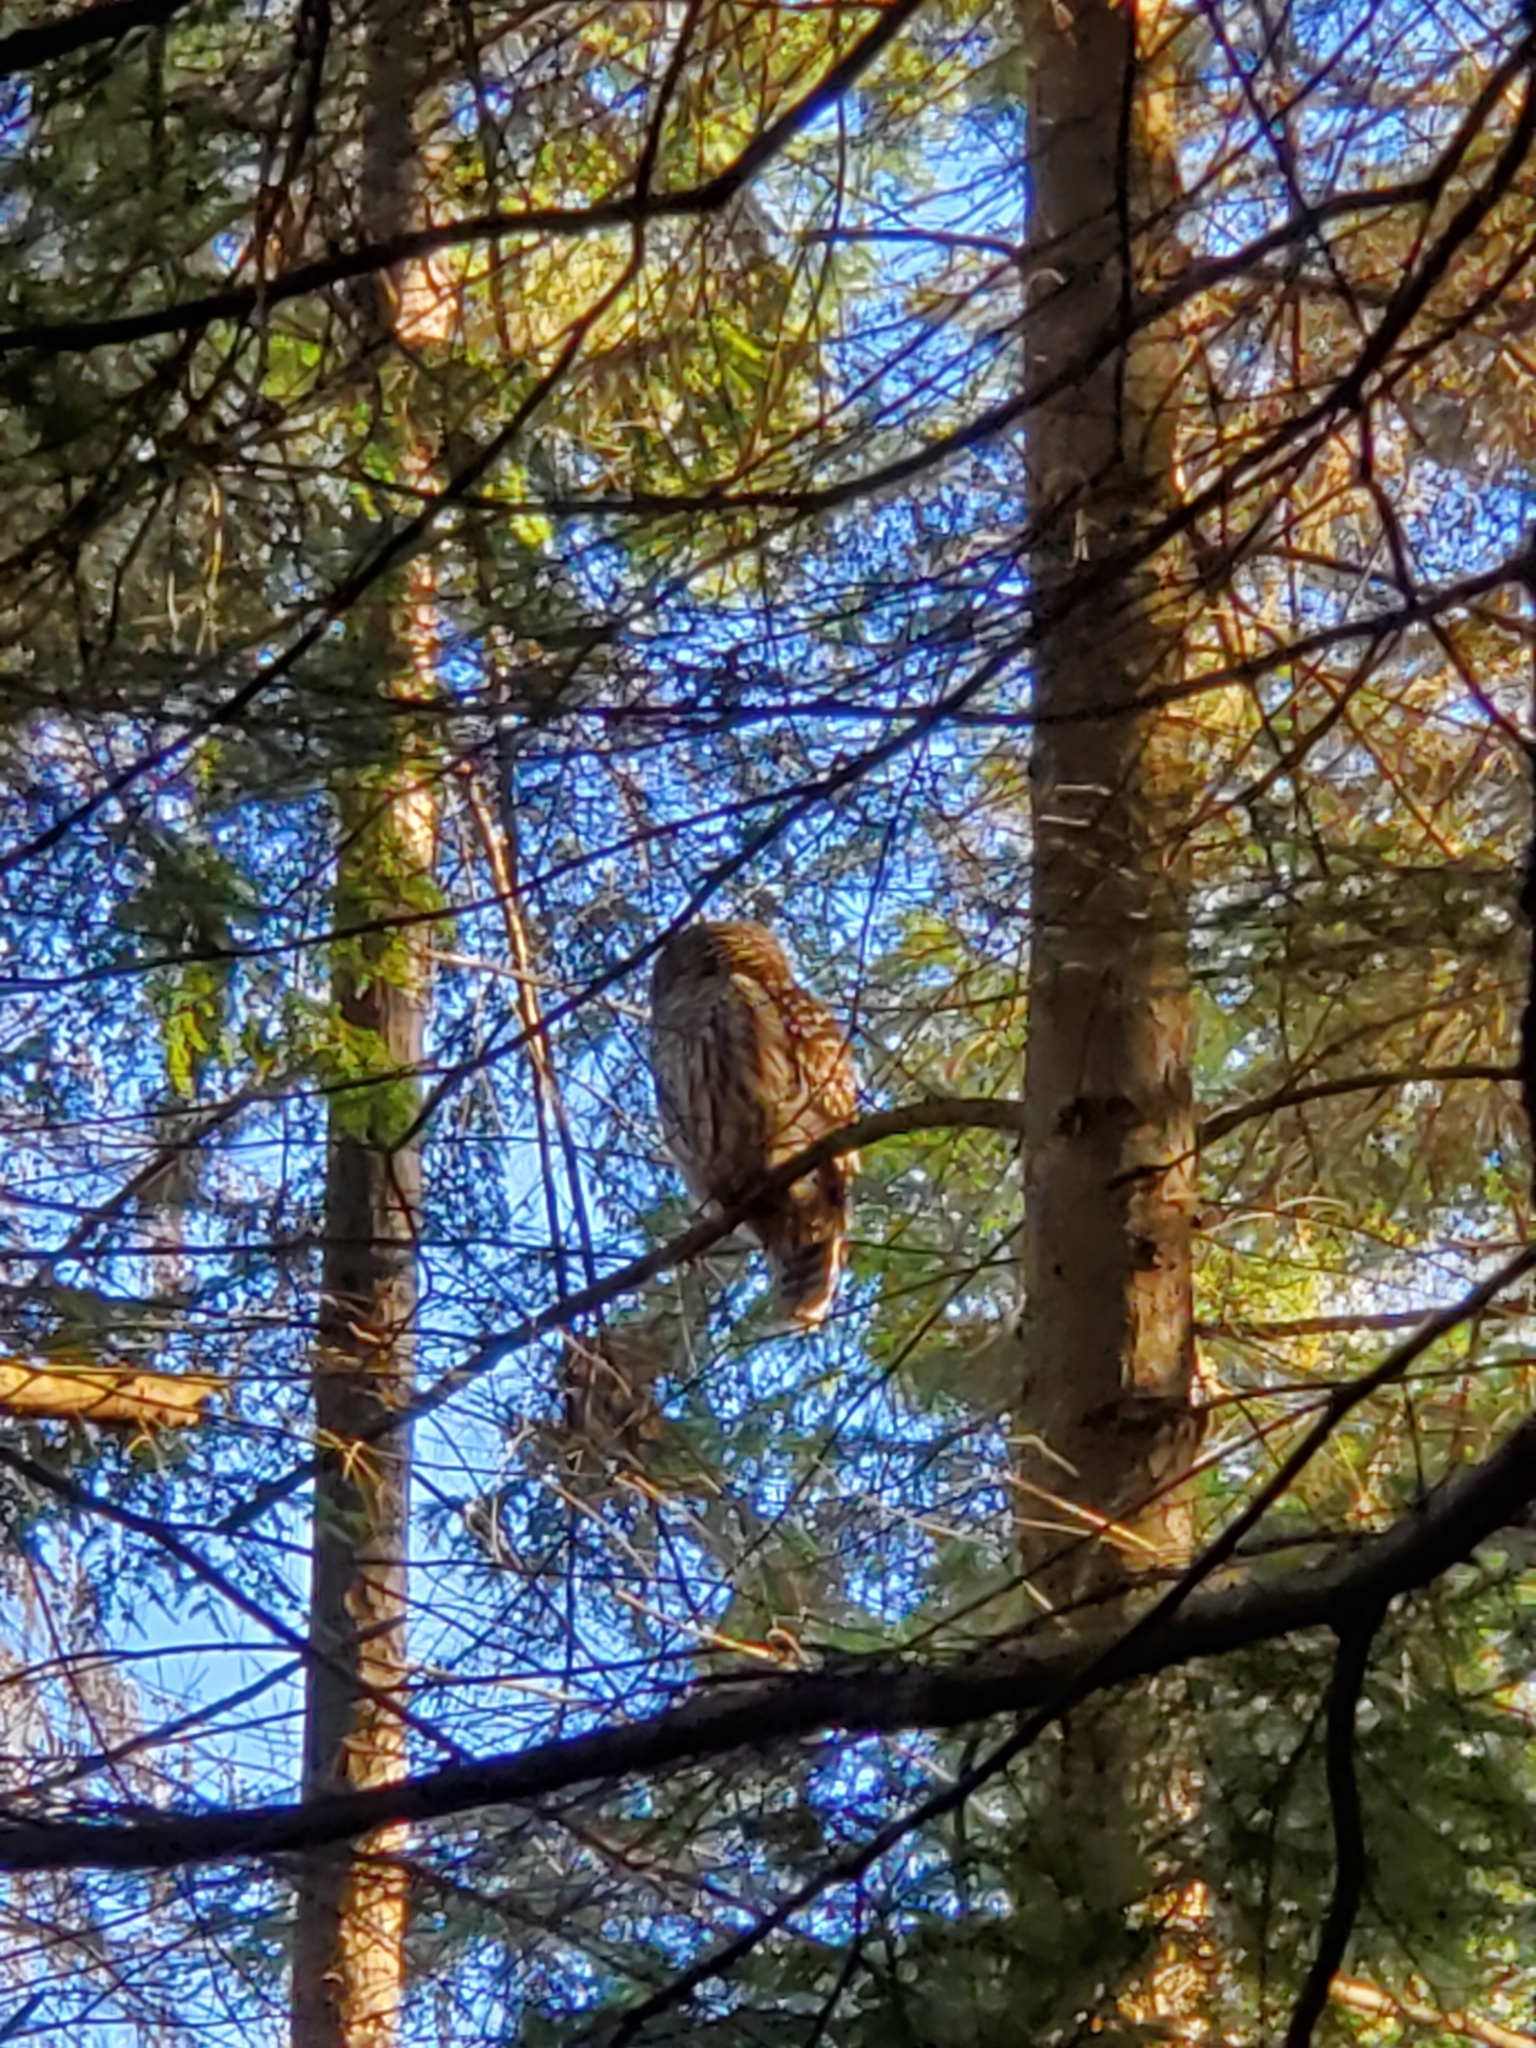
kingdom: Animalia
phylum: Chordata
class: Aves
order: Strigiformes
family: Strigidae
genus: Strix
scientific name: Strix varia
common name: Barred owl
